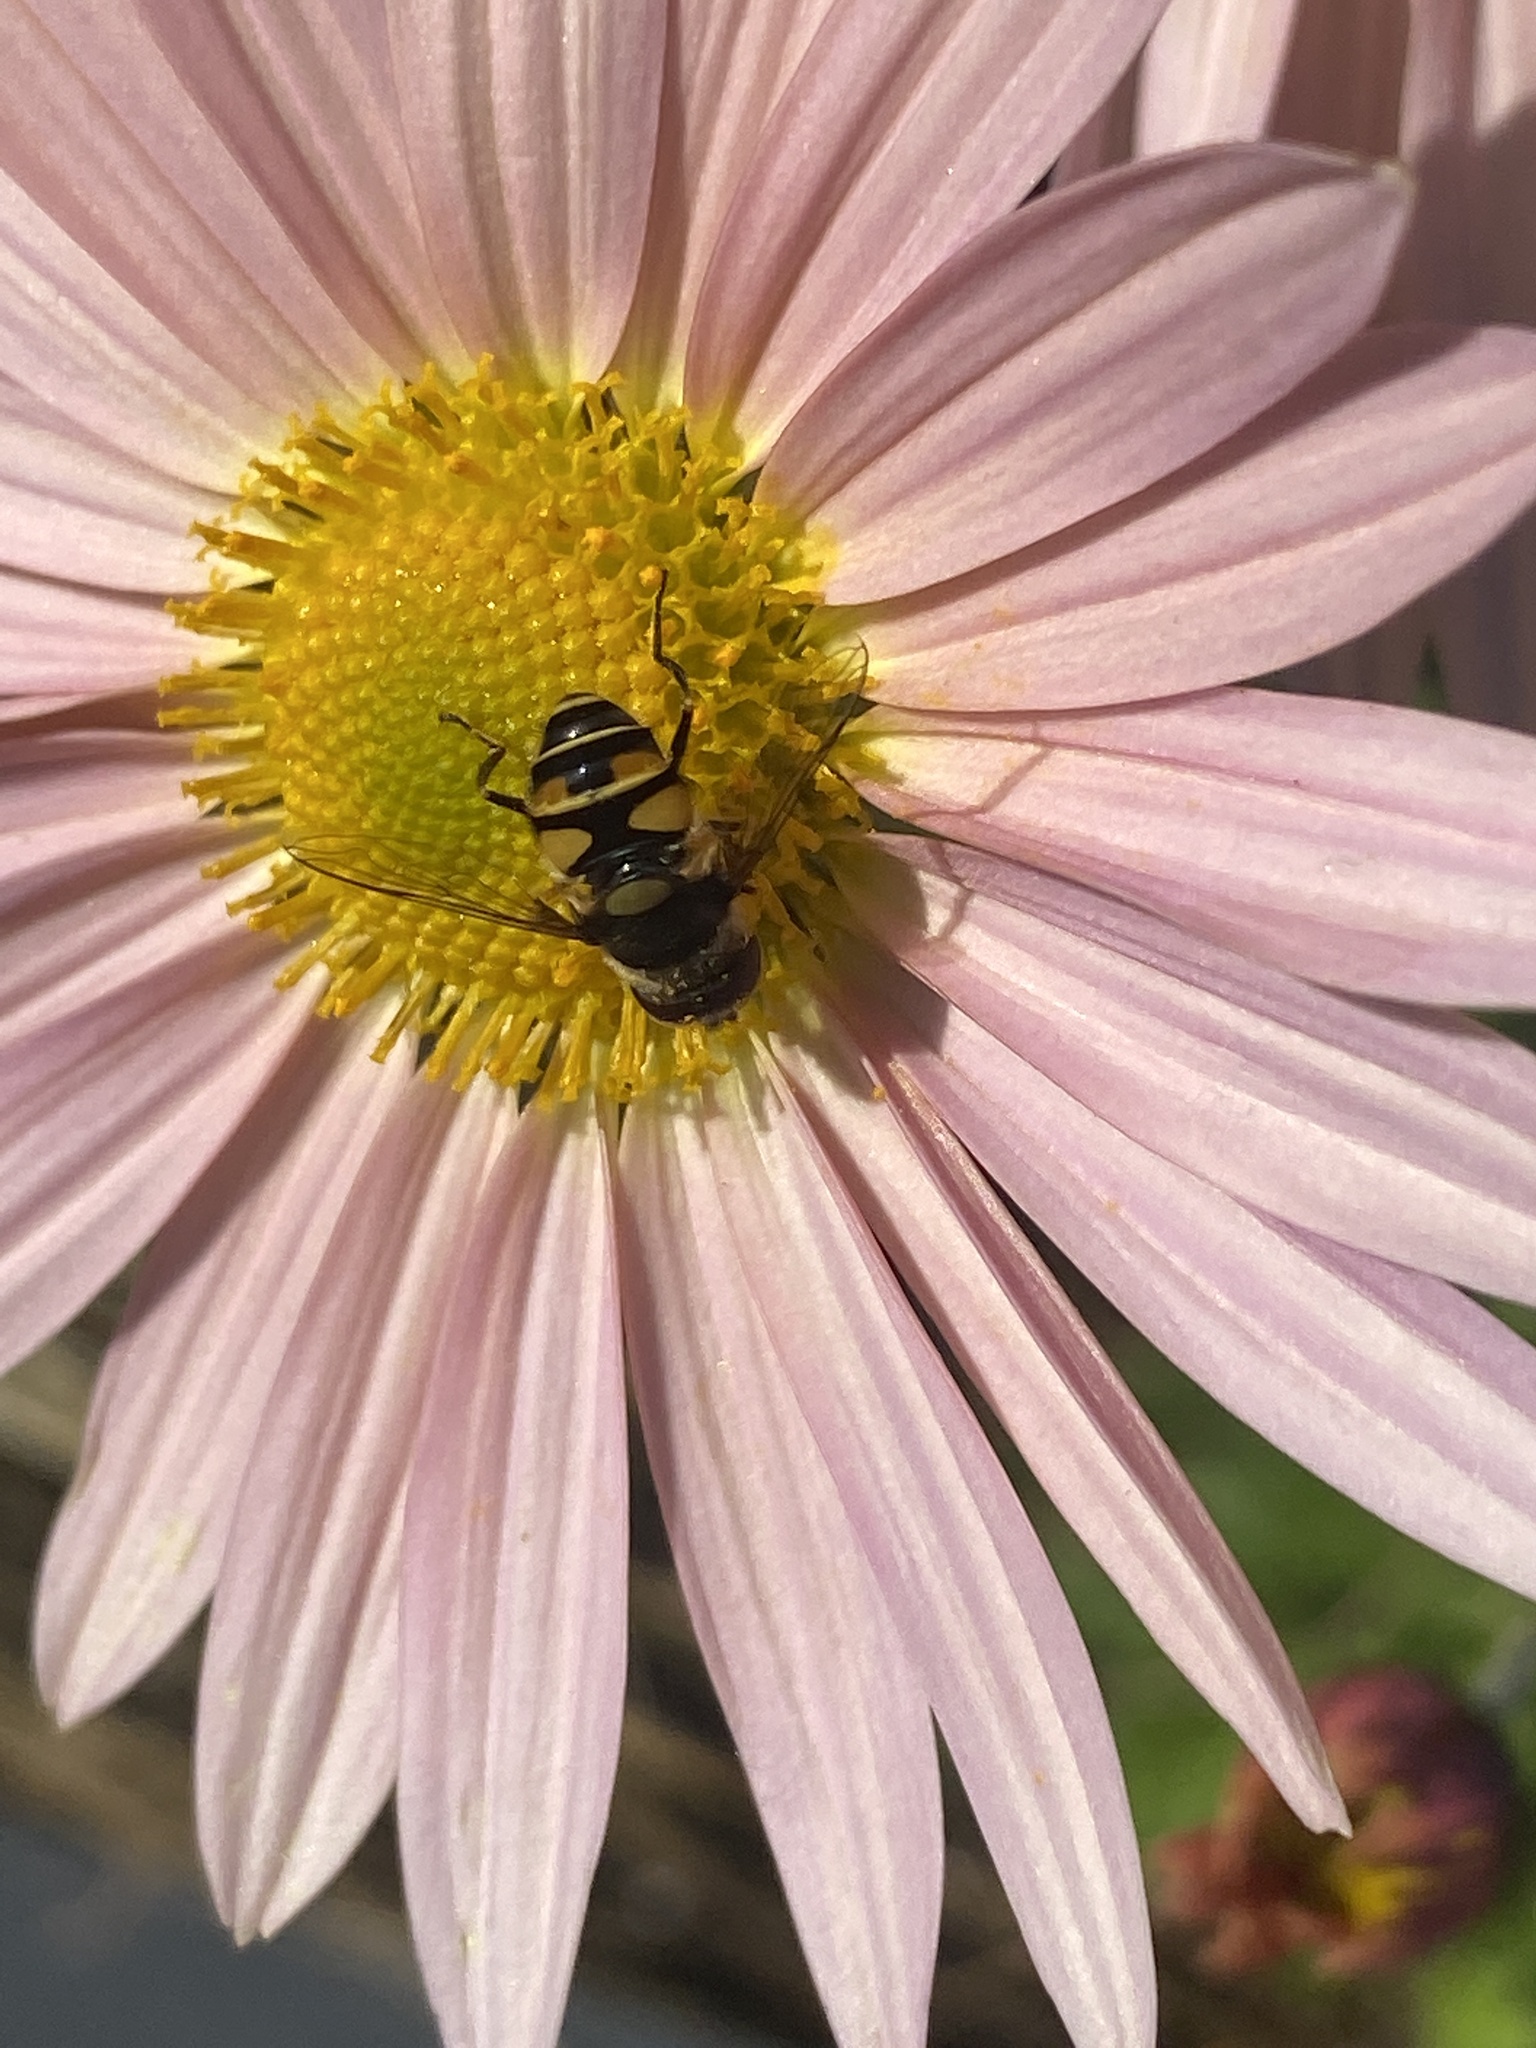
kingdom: Animalia
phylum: Arthropoda
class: Insecta
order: Diptera
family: Syrphidae
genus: Eristalis
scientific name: Eristalis transversa
